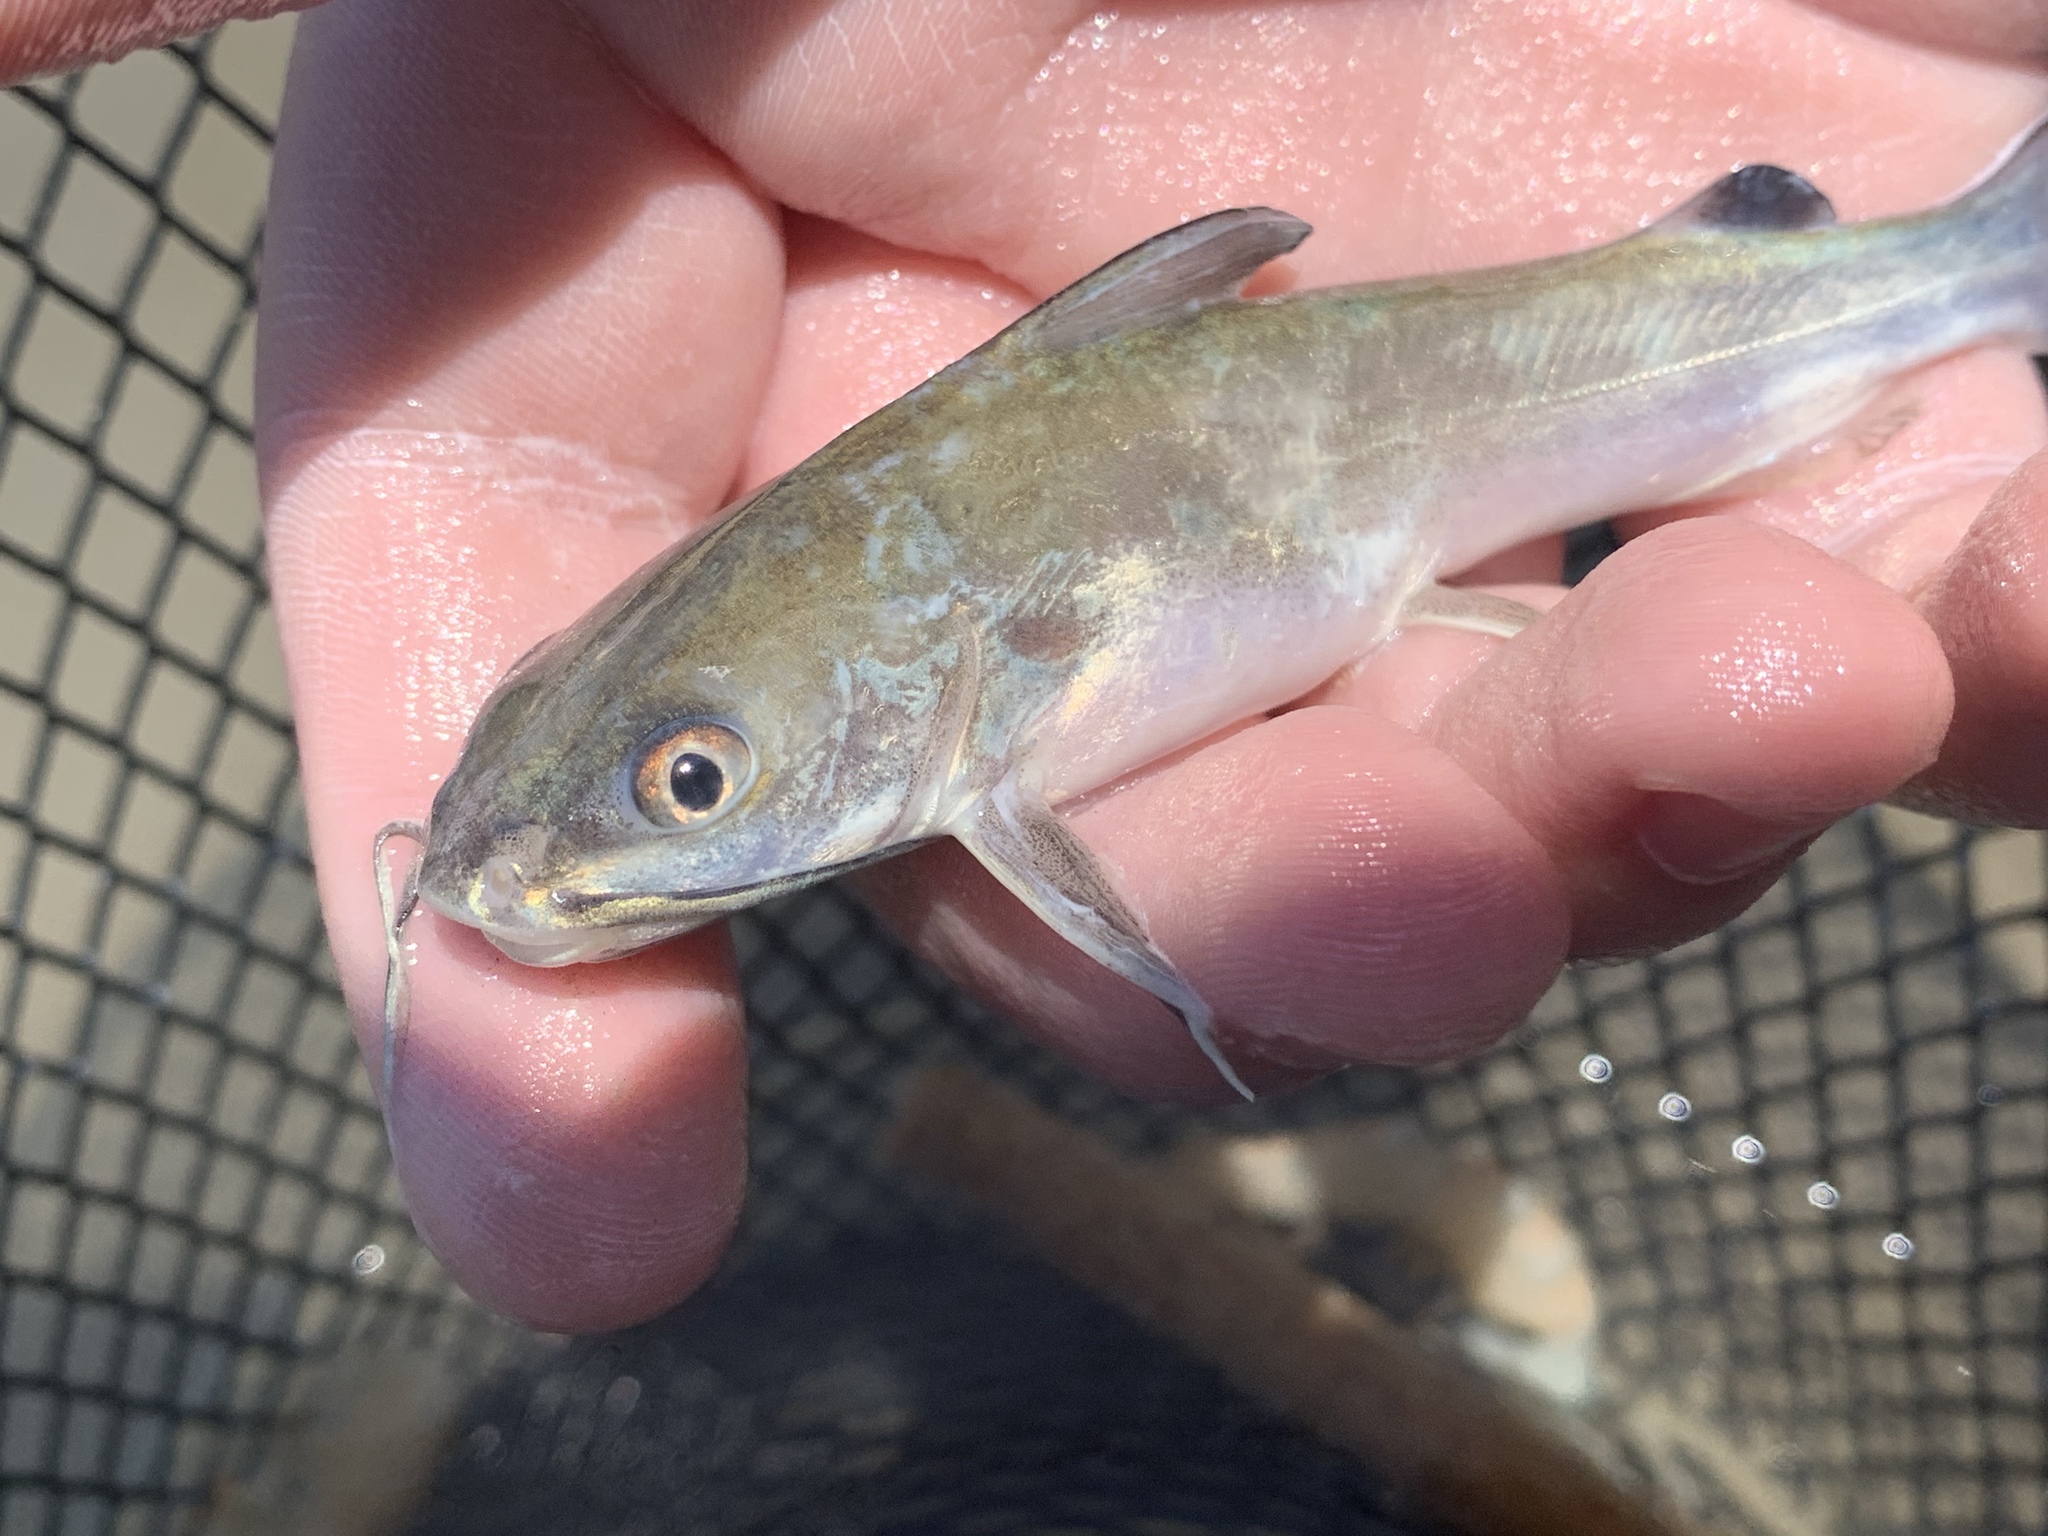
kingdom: Animalia
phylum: Chordata
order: Siluriformes
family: Ariidae
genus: Ariopsis
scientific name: Ariopsis felis
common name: Hardhead catfish
